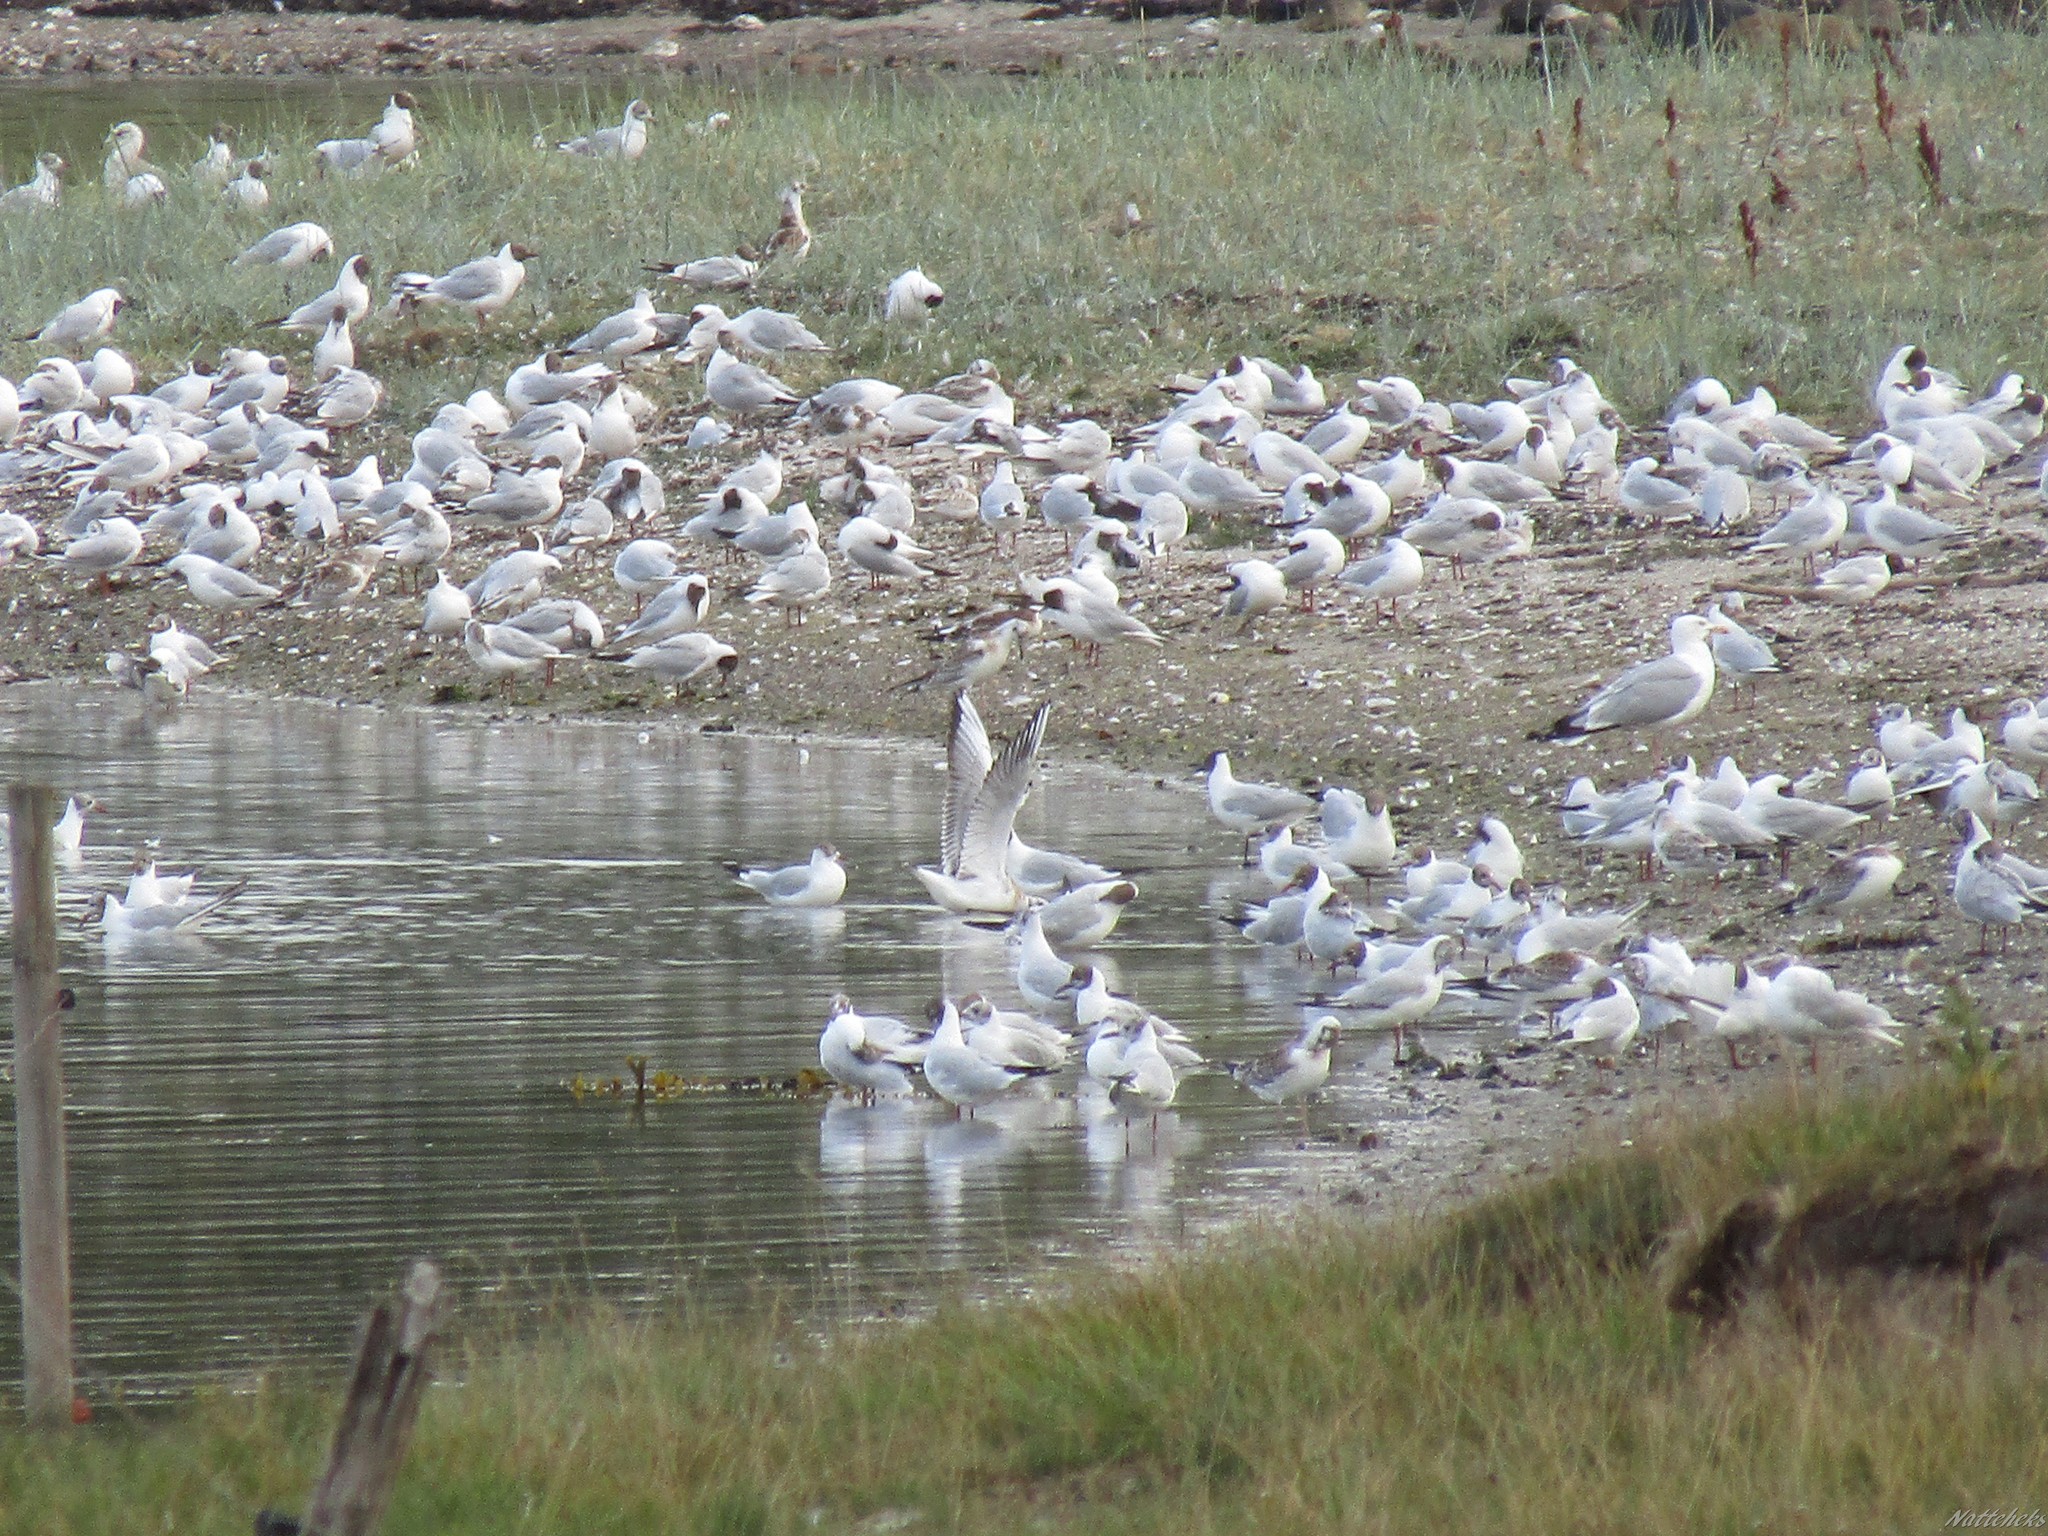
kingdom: Animalia
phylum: Chordata
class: Aves
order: Charadriiformes
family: Laridae
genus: Chroicocephalus
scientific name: Chroicocephalus ridibundus
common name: Black-headed gull
